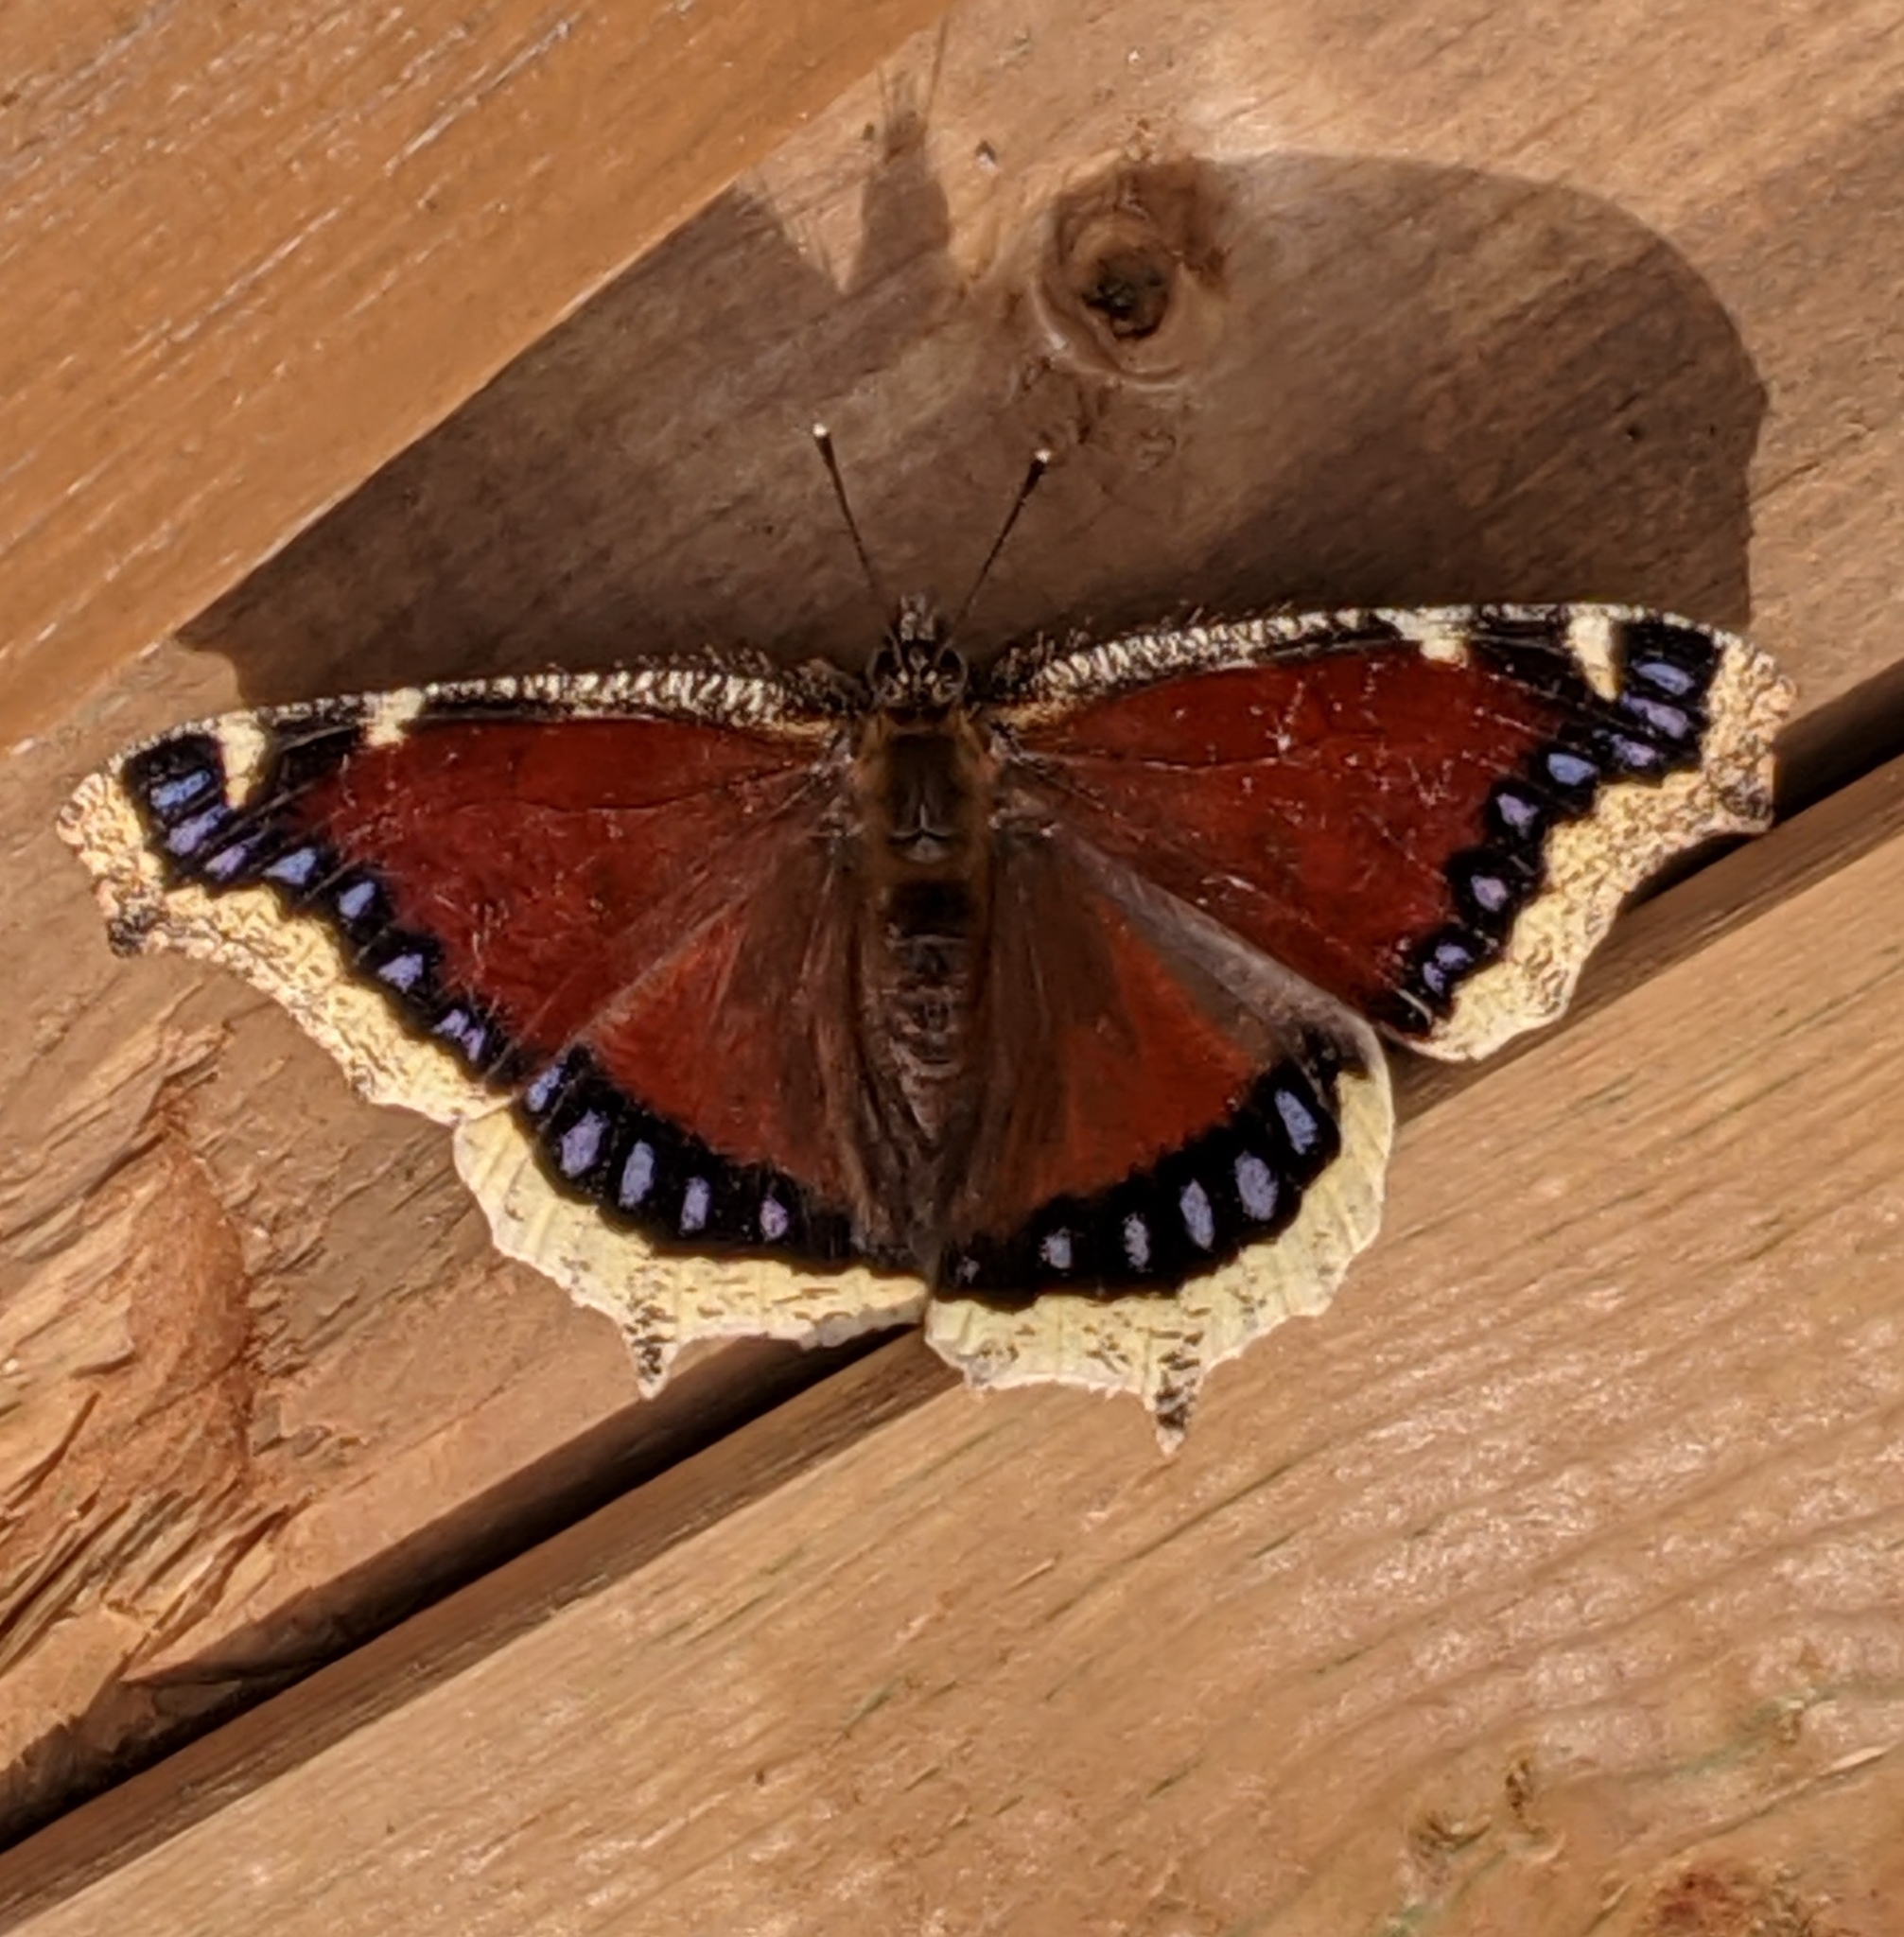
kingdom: Animalia
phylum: Arthropoda
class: Insecta
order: Lepidoptera
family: Nymphalidae
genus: Nymphalis
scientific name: Nymphalis antiopa
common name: Camberwell beauty
